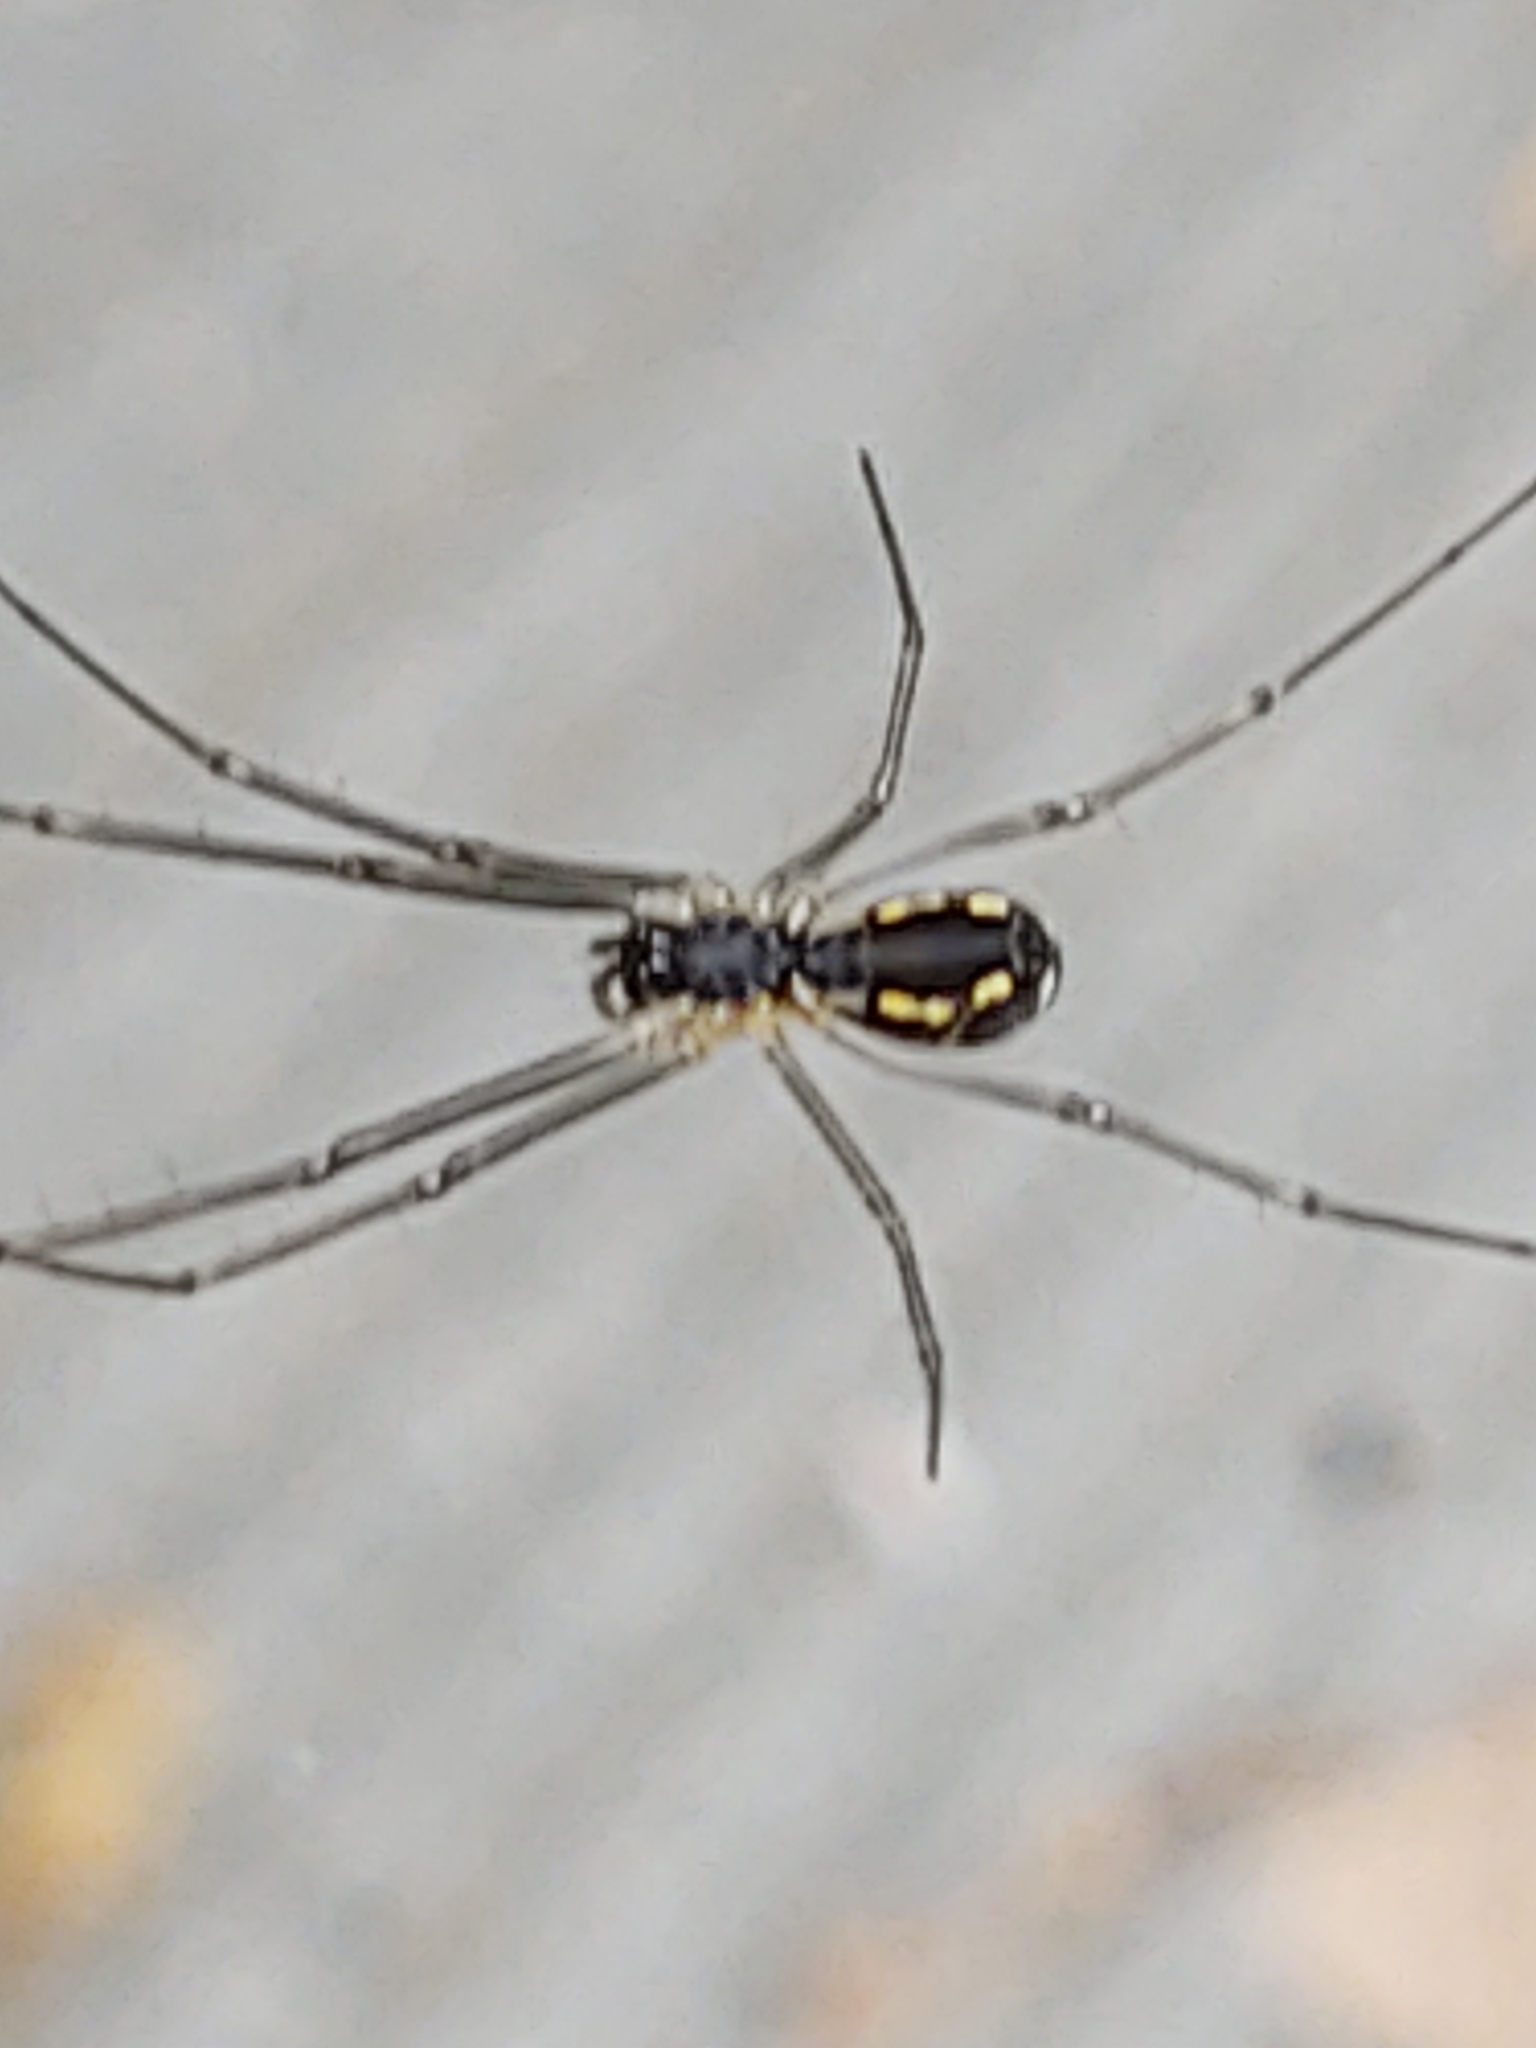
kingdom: Animalia
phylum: Arthropoda
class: Arachnida
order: Araneae
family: Linyphiidae
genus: Neriene
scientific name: Neriene radiata
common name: Filmy dome spider
